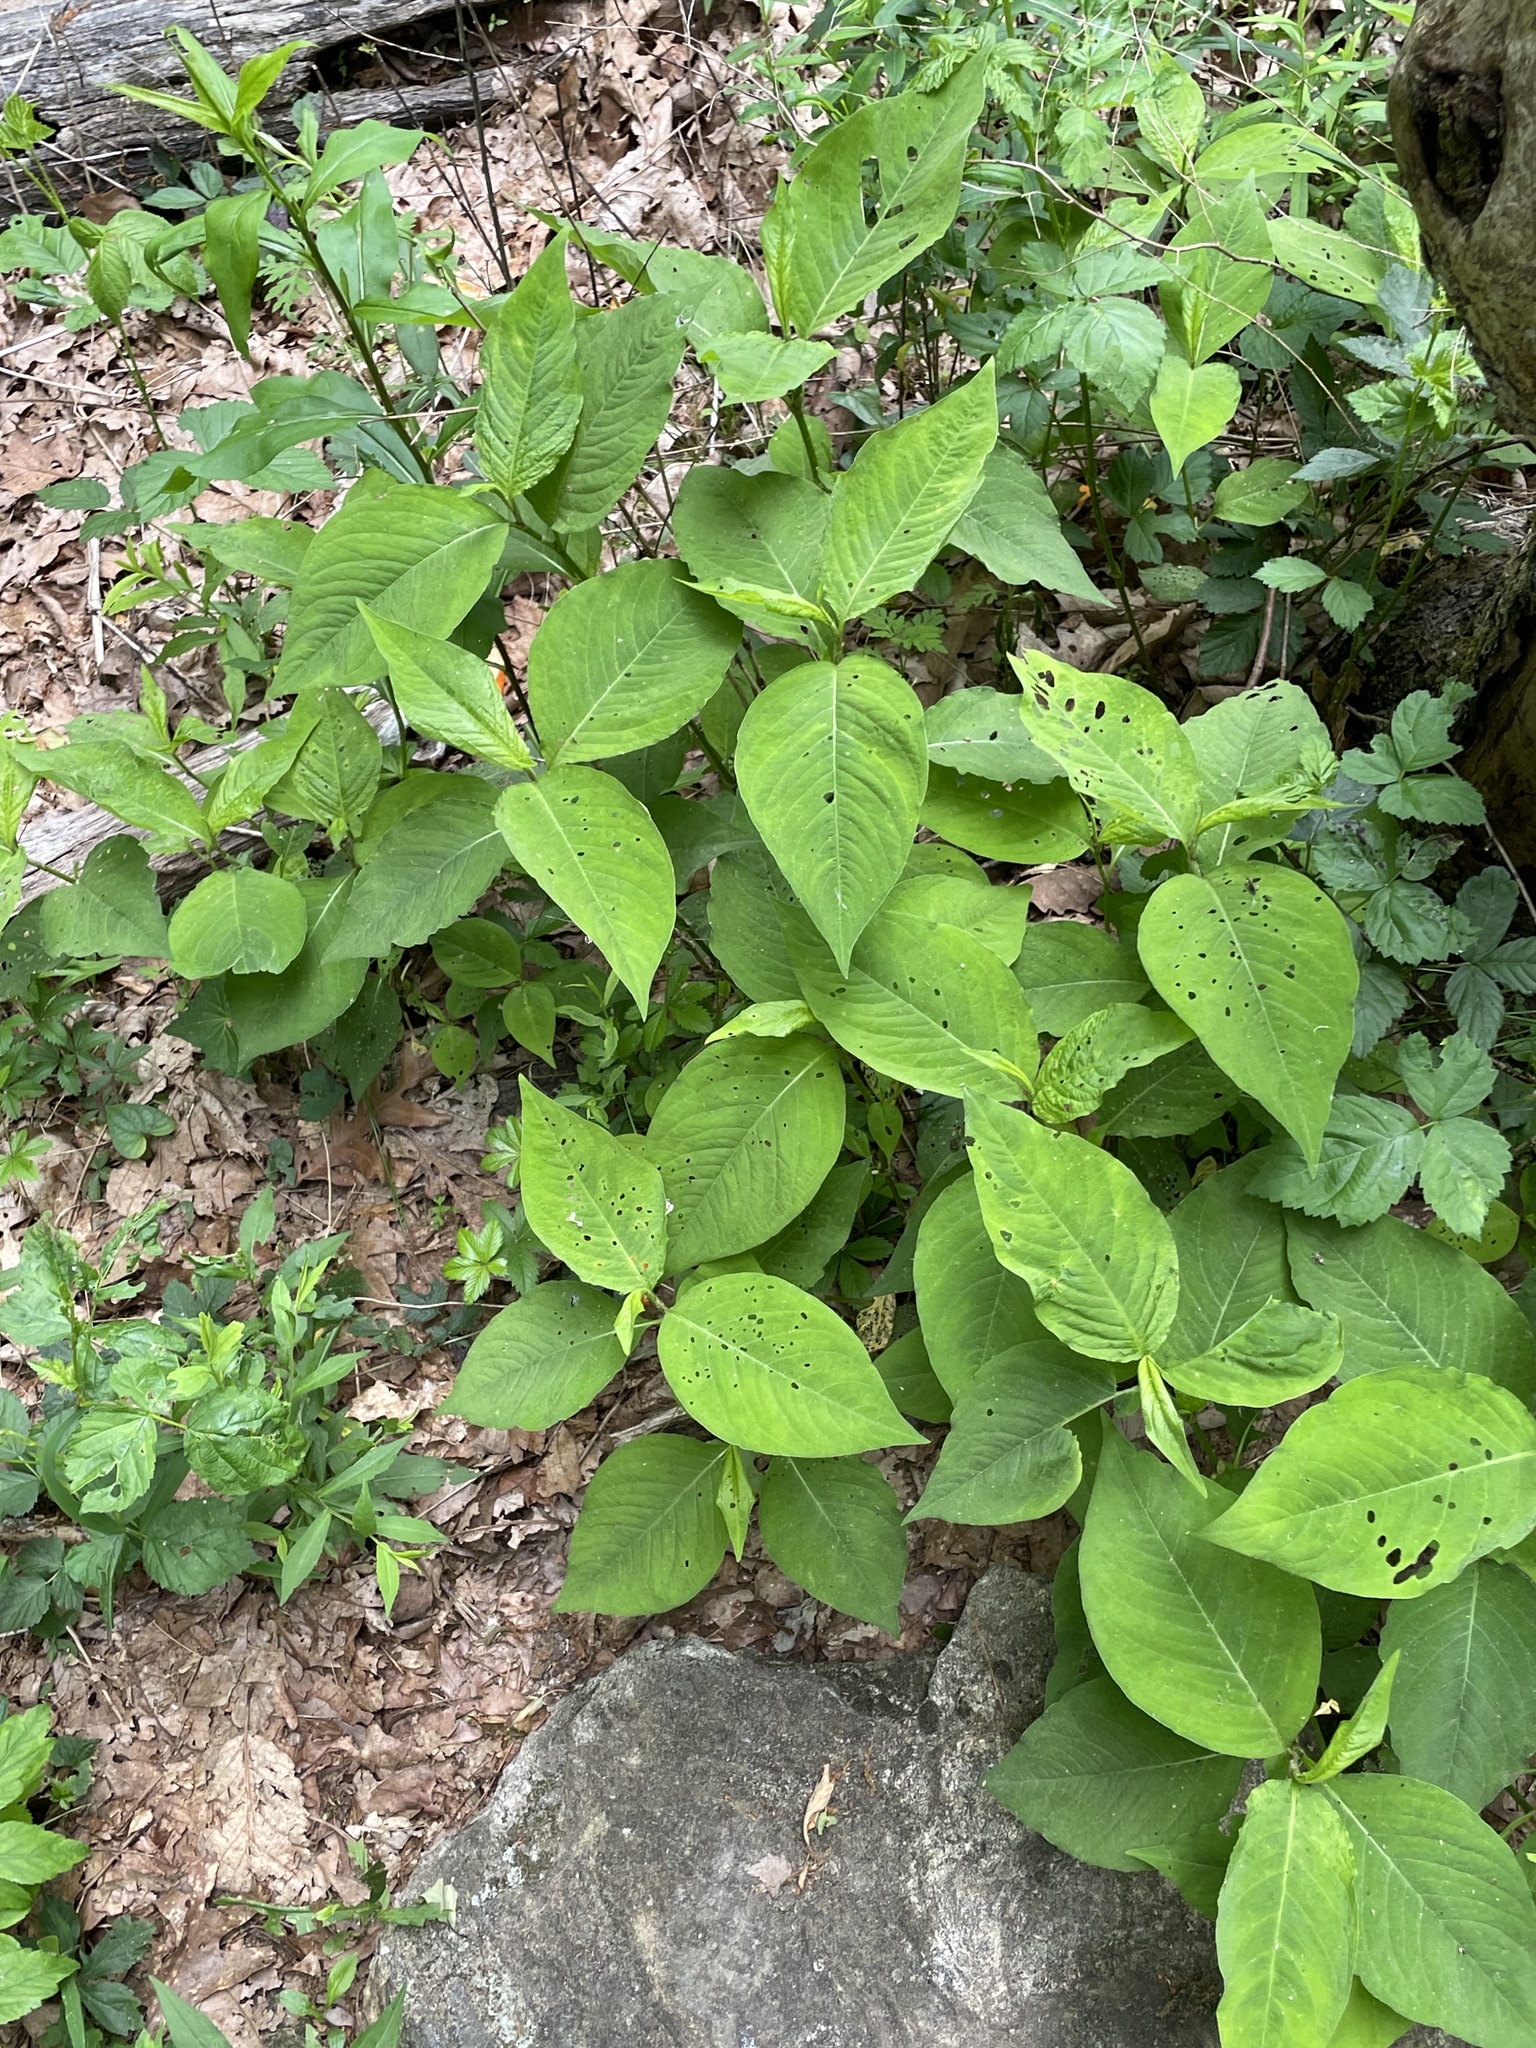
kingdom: Plantae
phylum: Tracheophyta
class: Magnoliopsida
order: Caryophyllales
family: Polygonaceae
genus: Persicaria
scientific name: Persicaria virginiana
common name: Jumpseed
